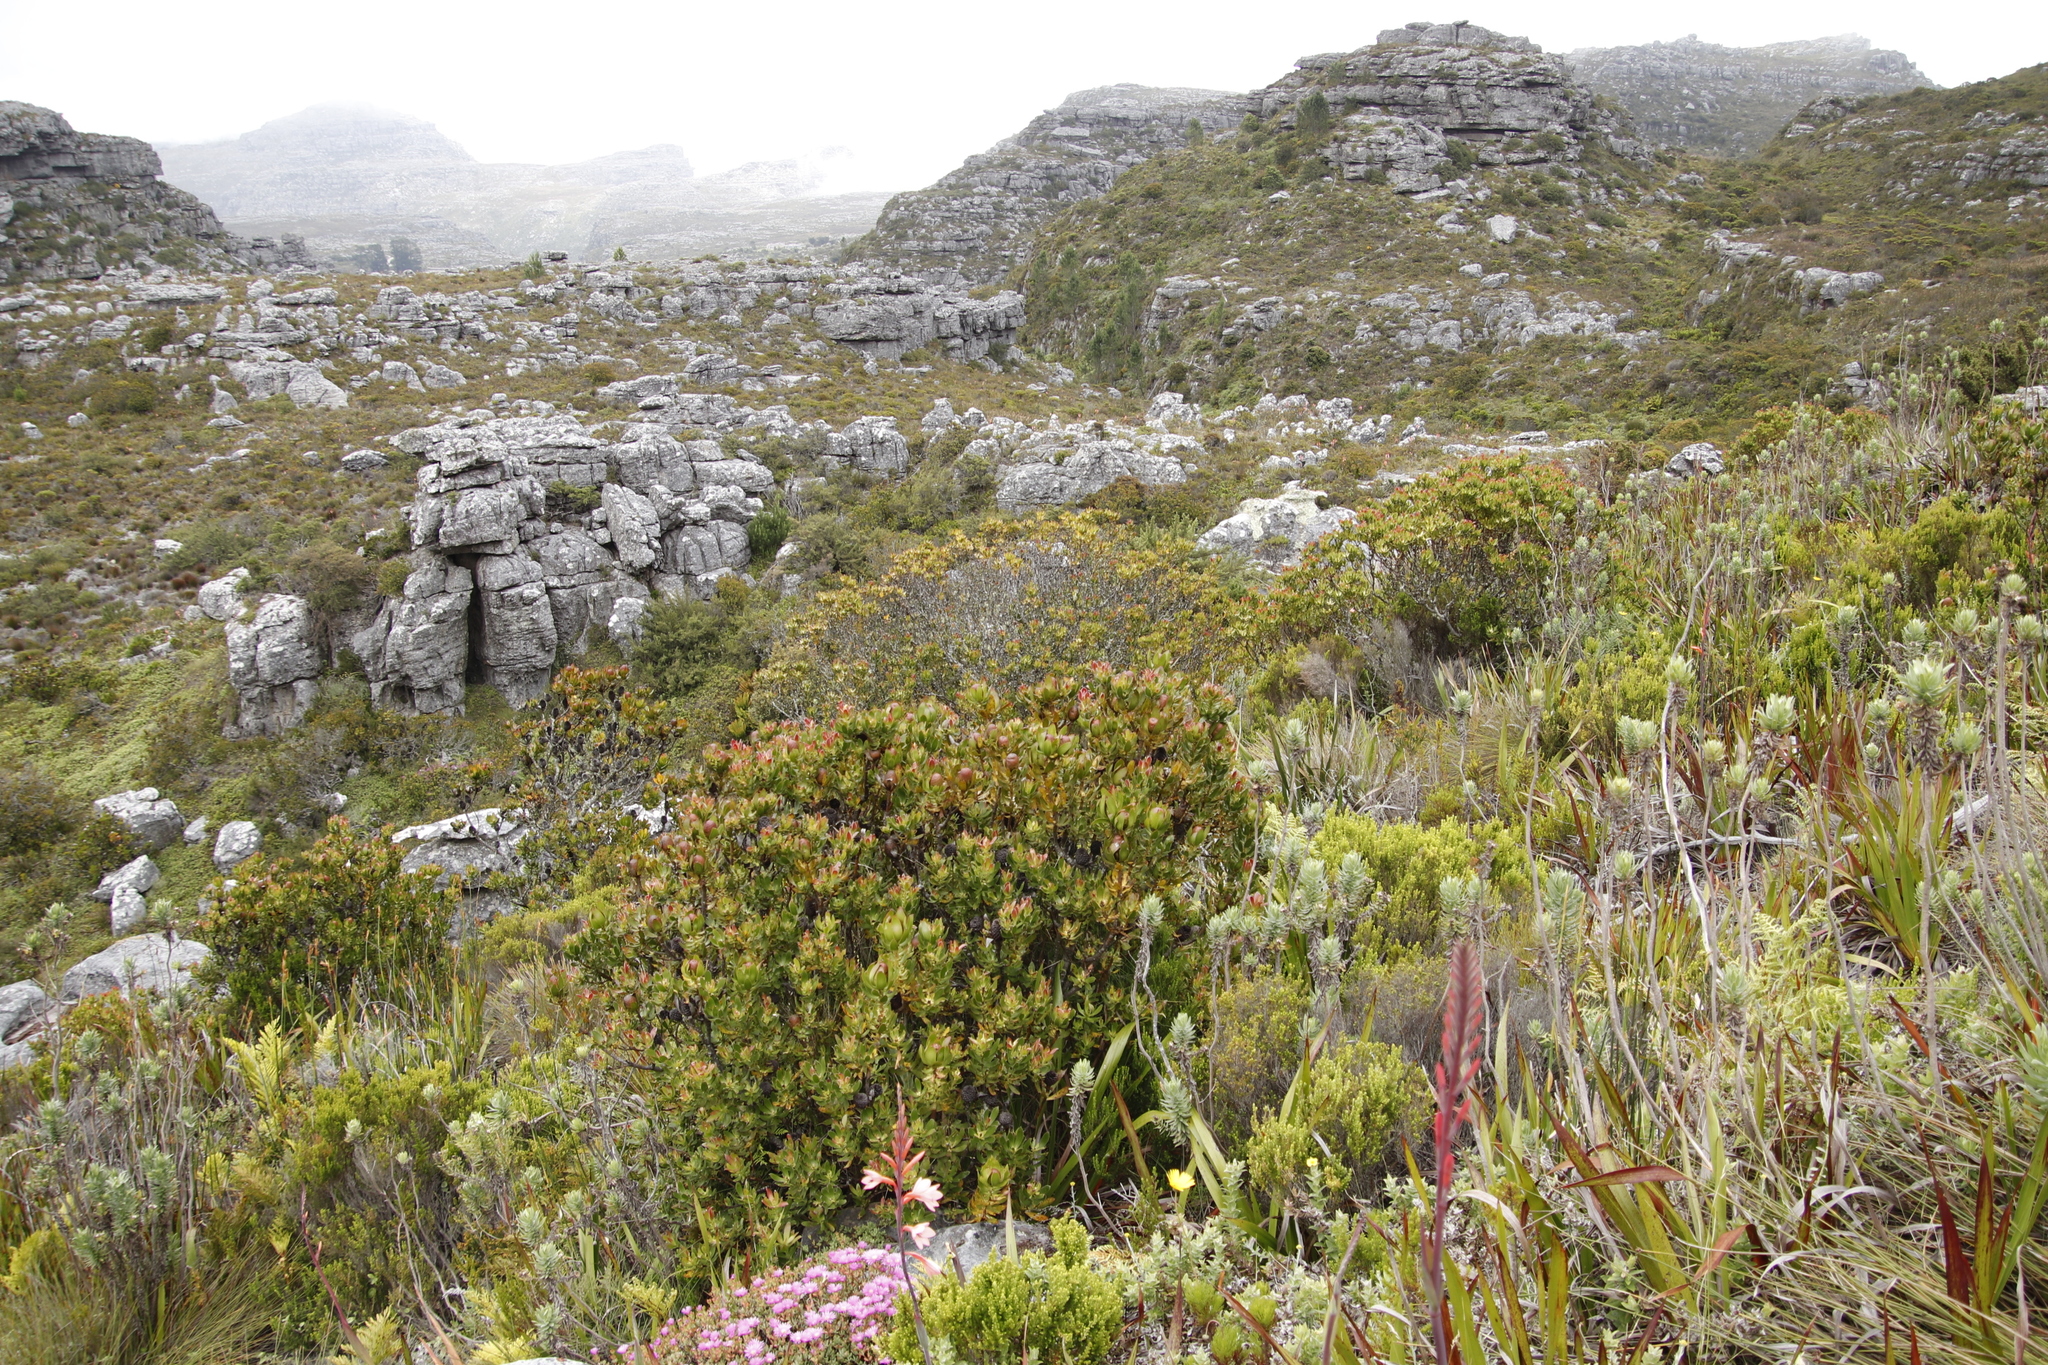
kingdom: Plantae
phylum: Tracheophyta
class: Magnoliopsida
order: Proteales
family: Proteaceae
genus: Leucadendron
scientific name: Leucadendron strobilinum
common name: Mountain rose
